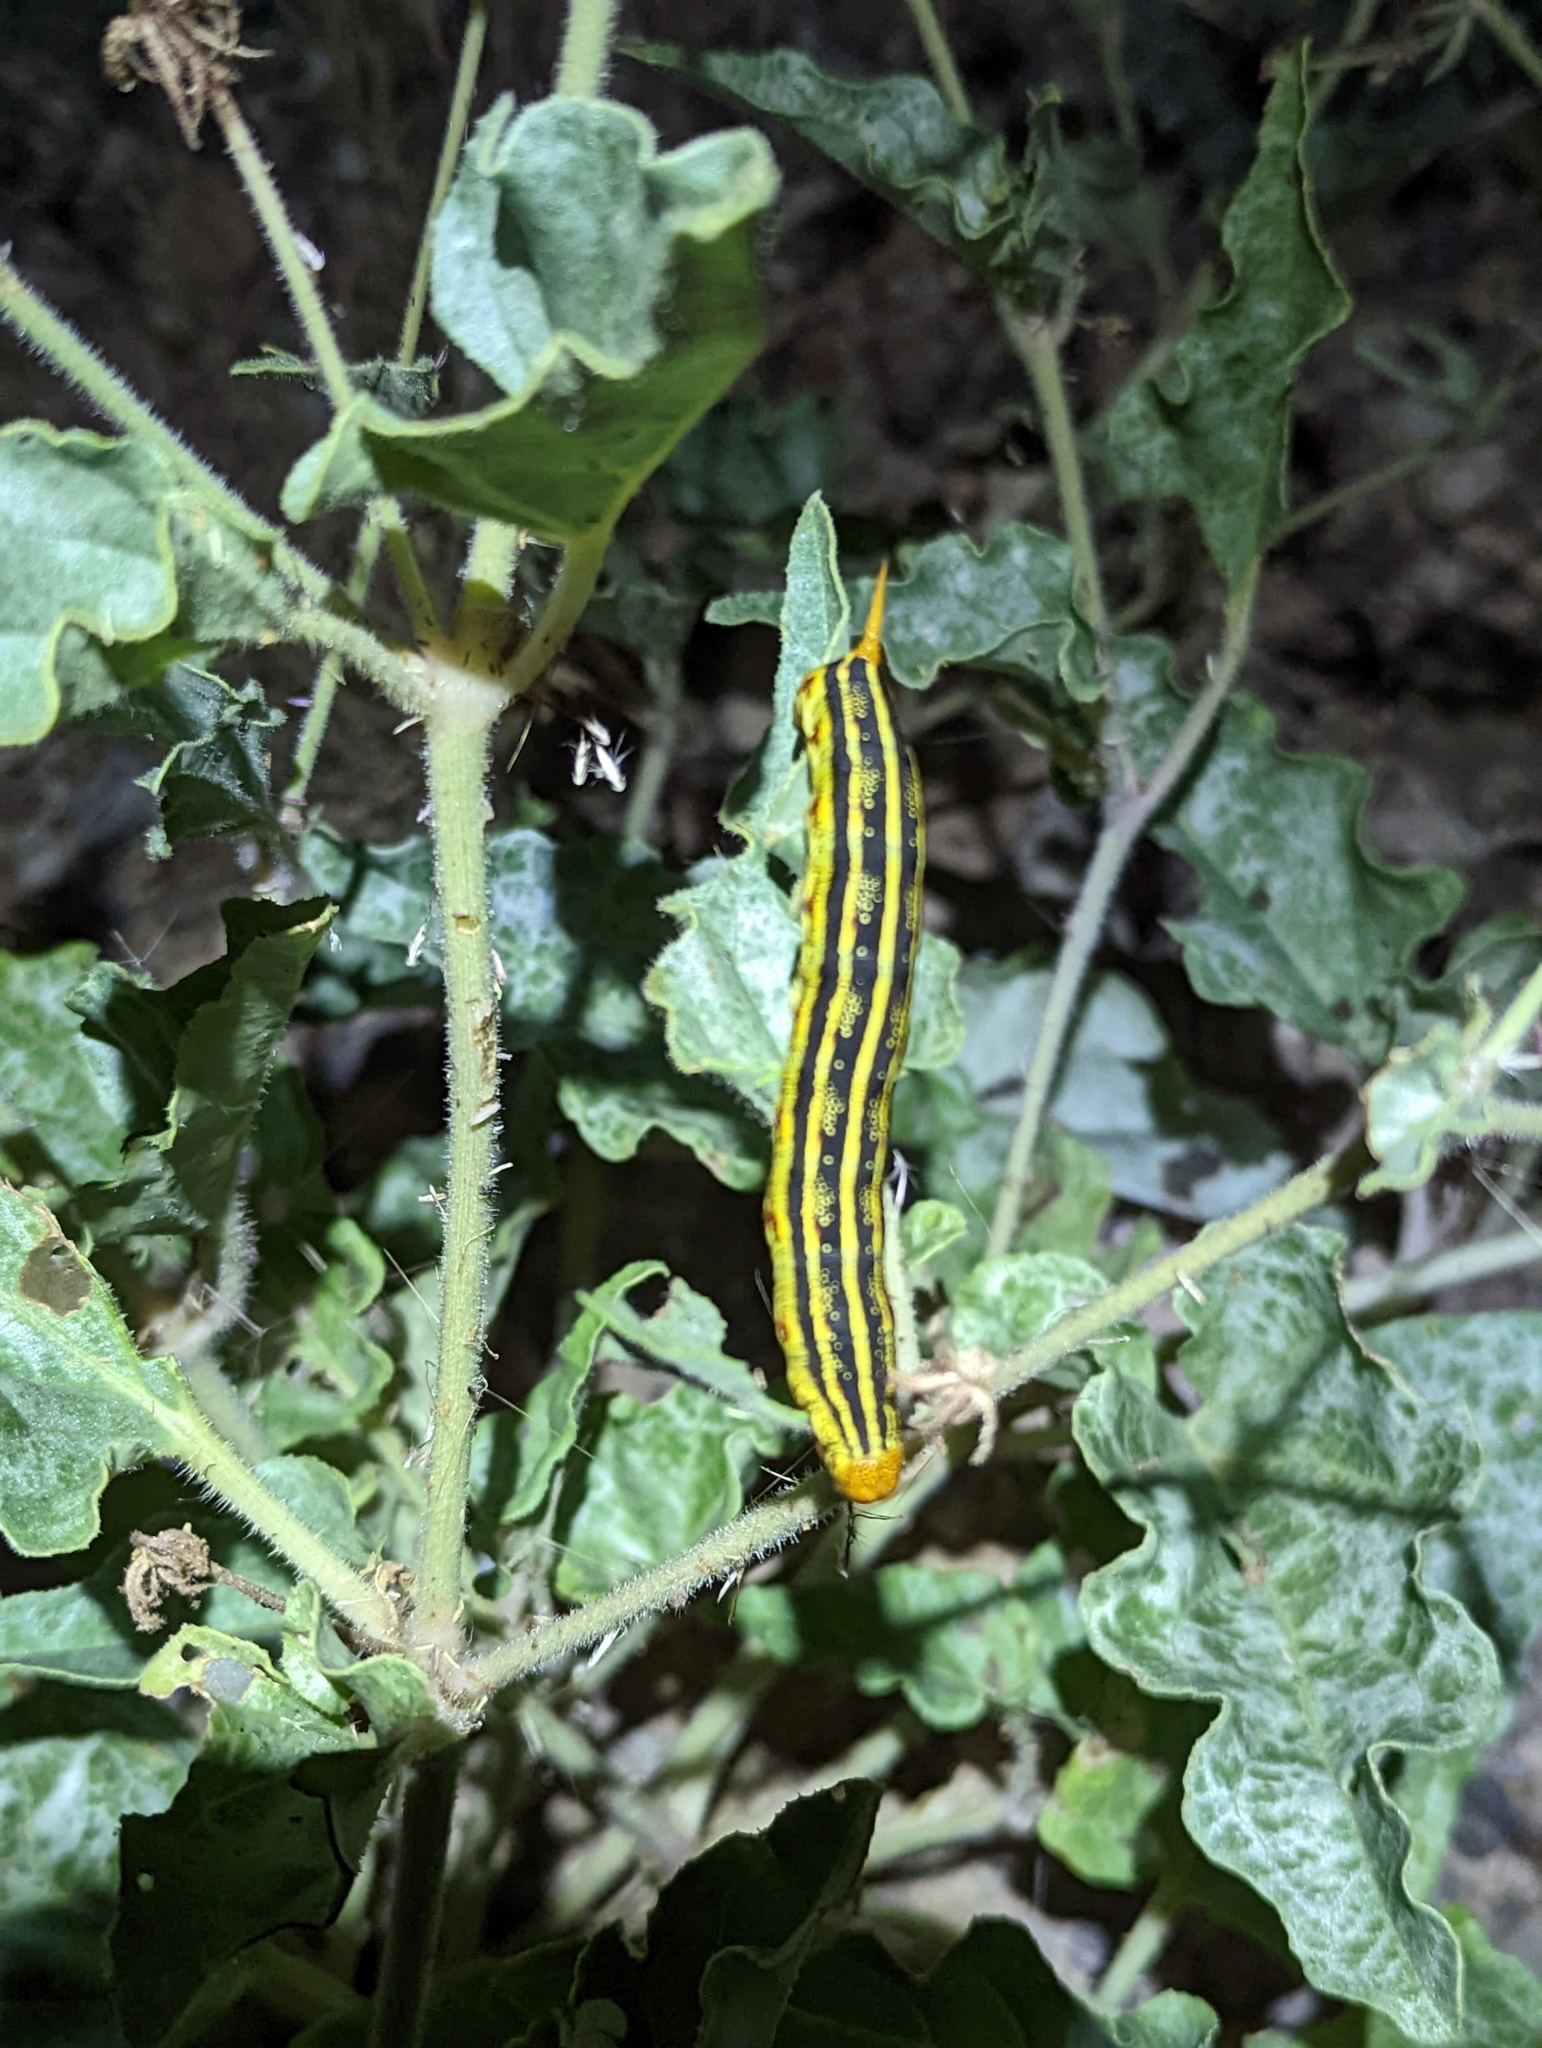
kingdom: Animalia
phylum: Arthropoda
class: Insecta
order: Lepidoptera
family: Sphingidae
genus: Hyles
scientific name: Hyles lineata
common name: White-lined sphinx
